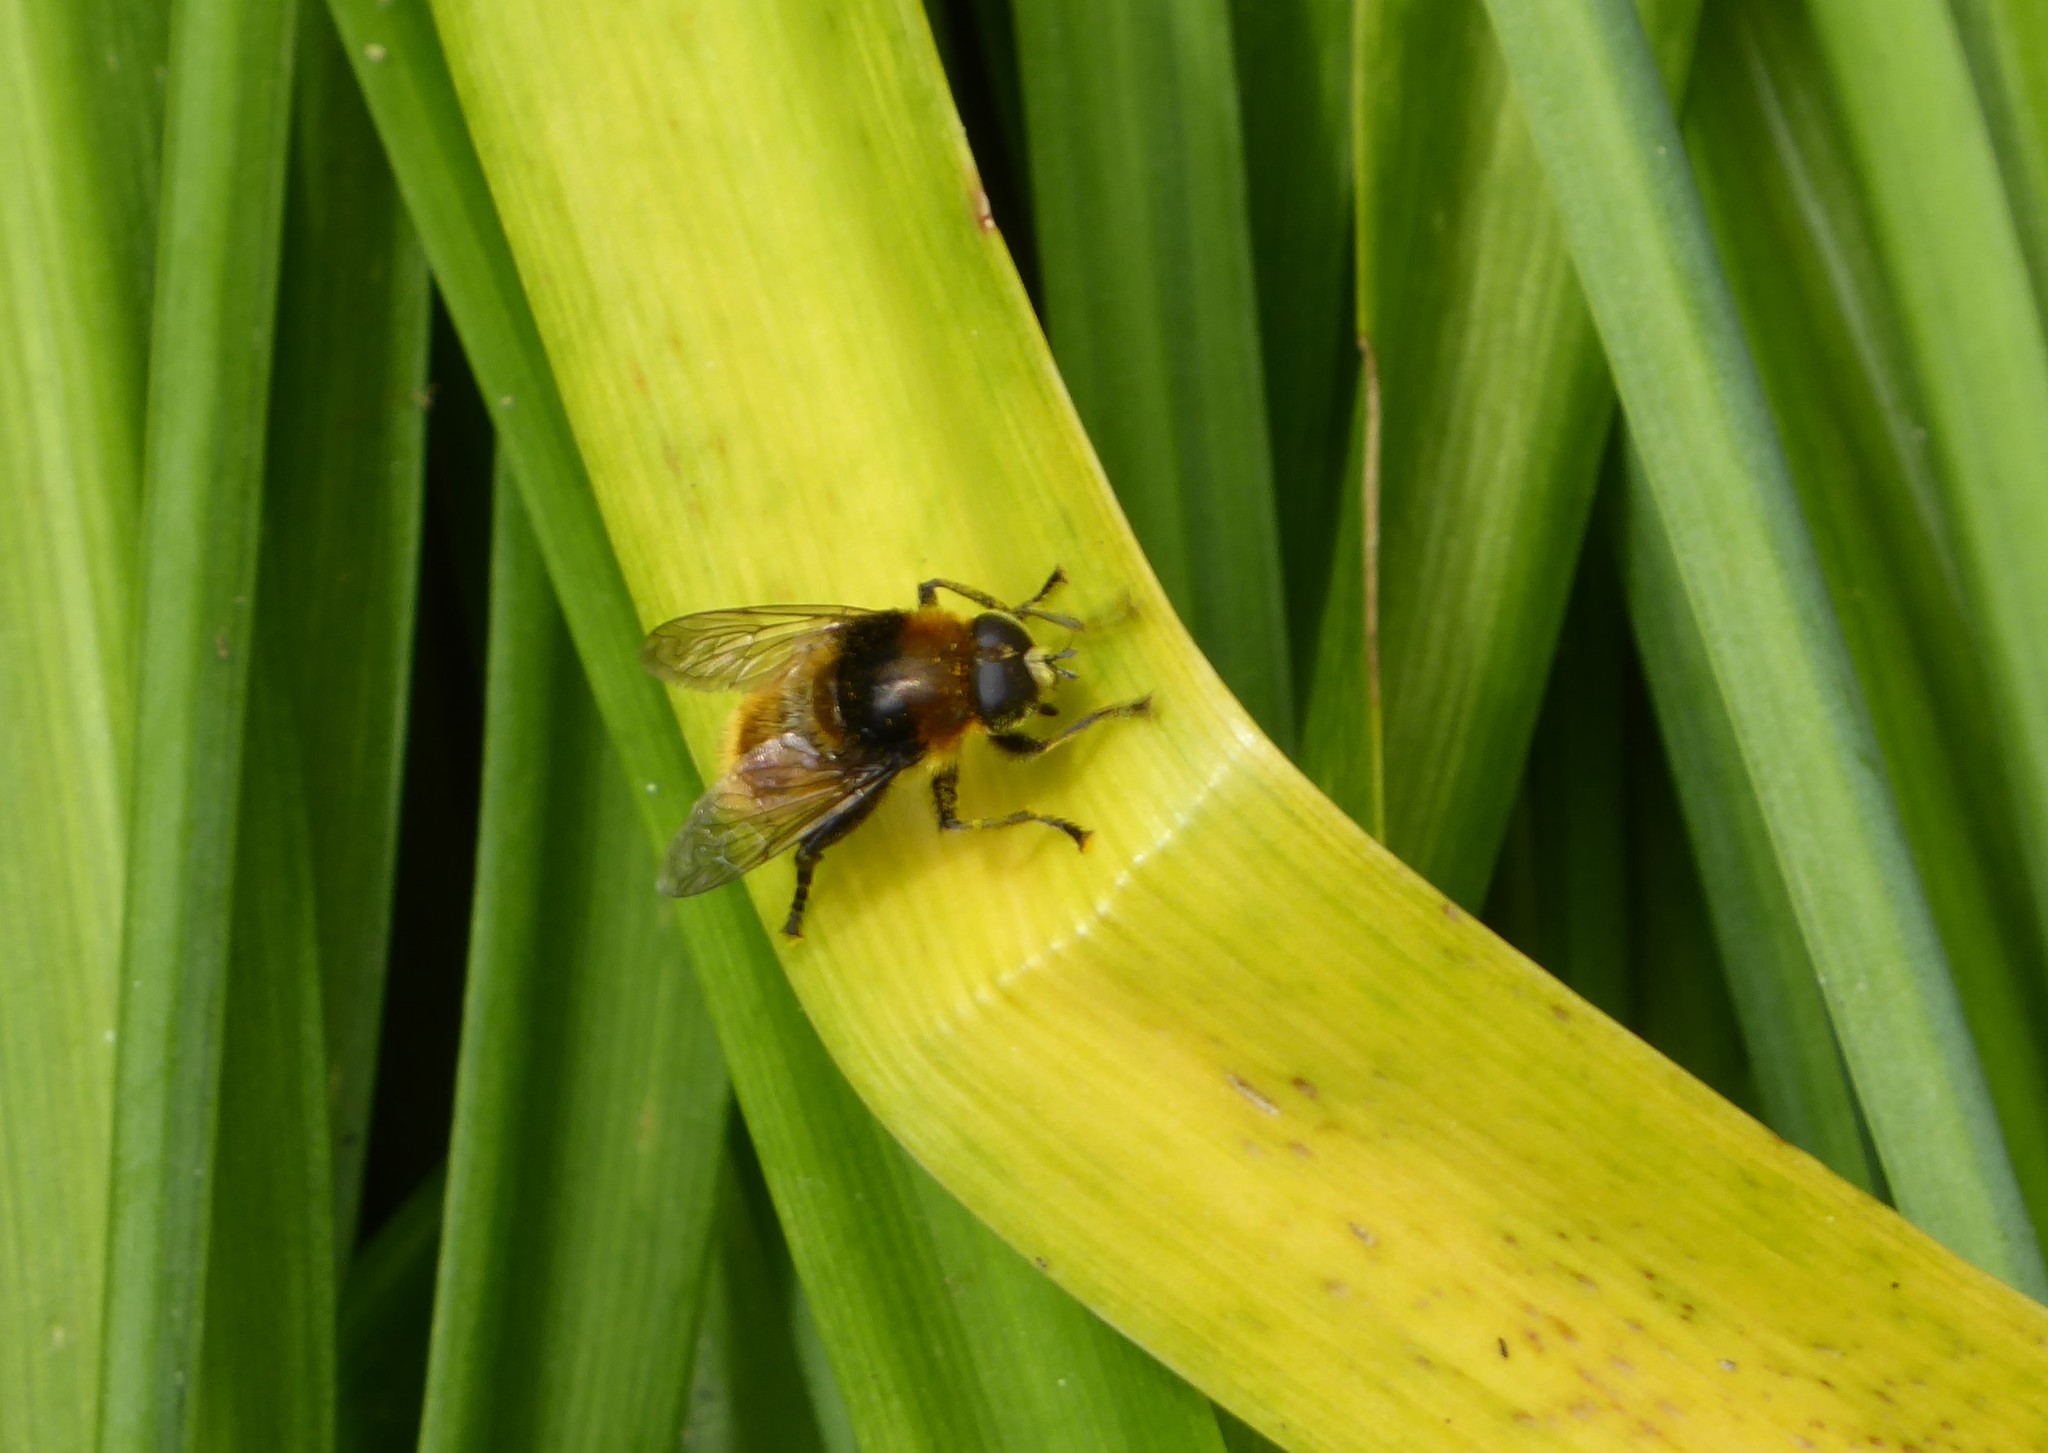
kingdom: Animalia
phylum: Arthropoda
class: Insecta
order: Diptera
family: Syrphidae
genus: Merodon
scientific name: Merodon equestris
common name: Greater bulb-fly
